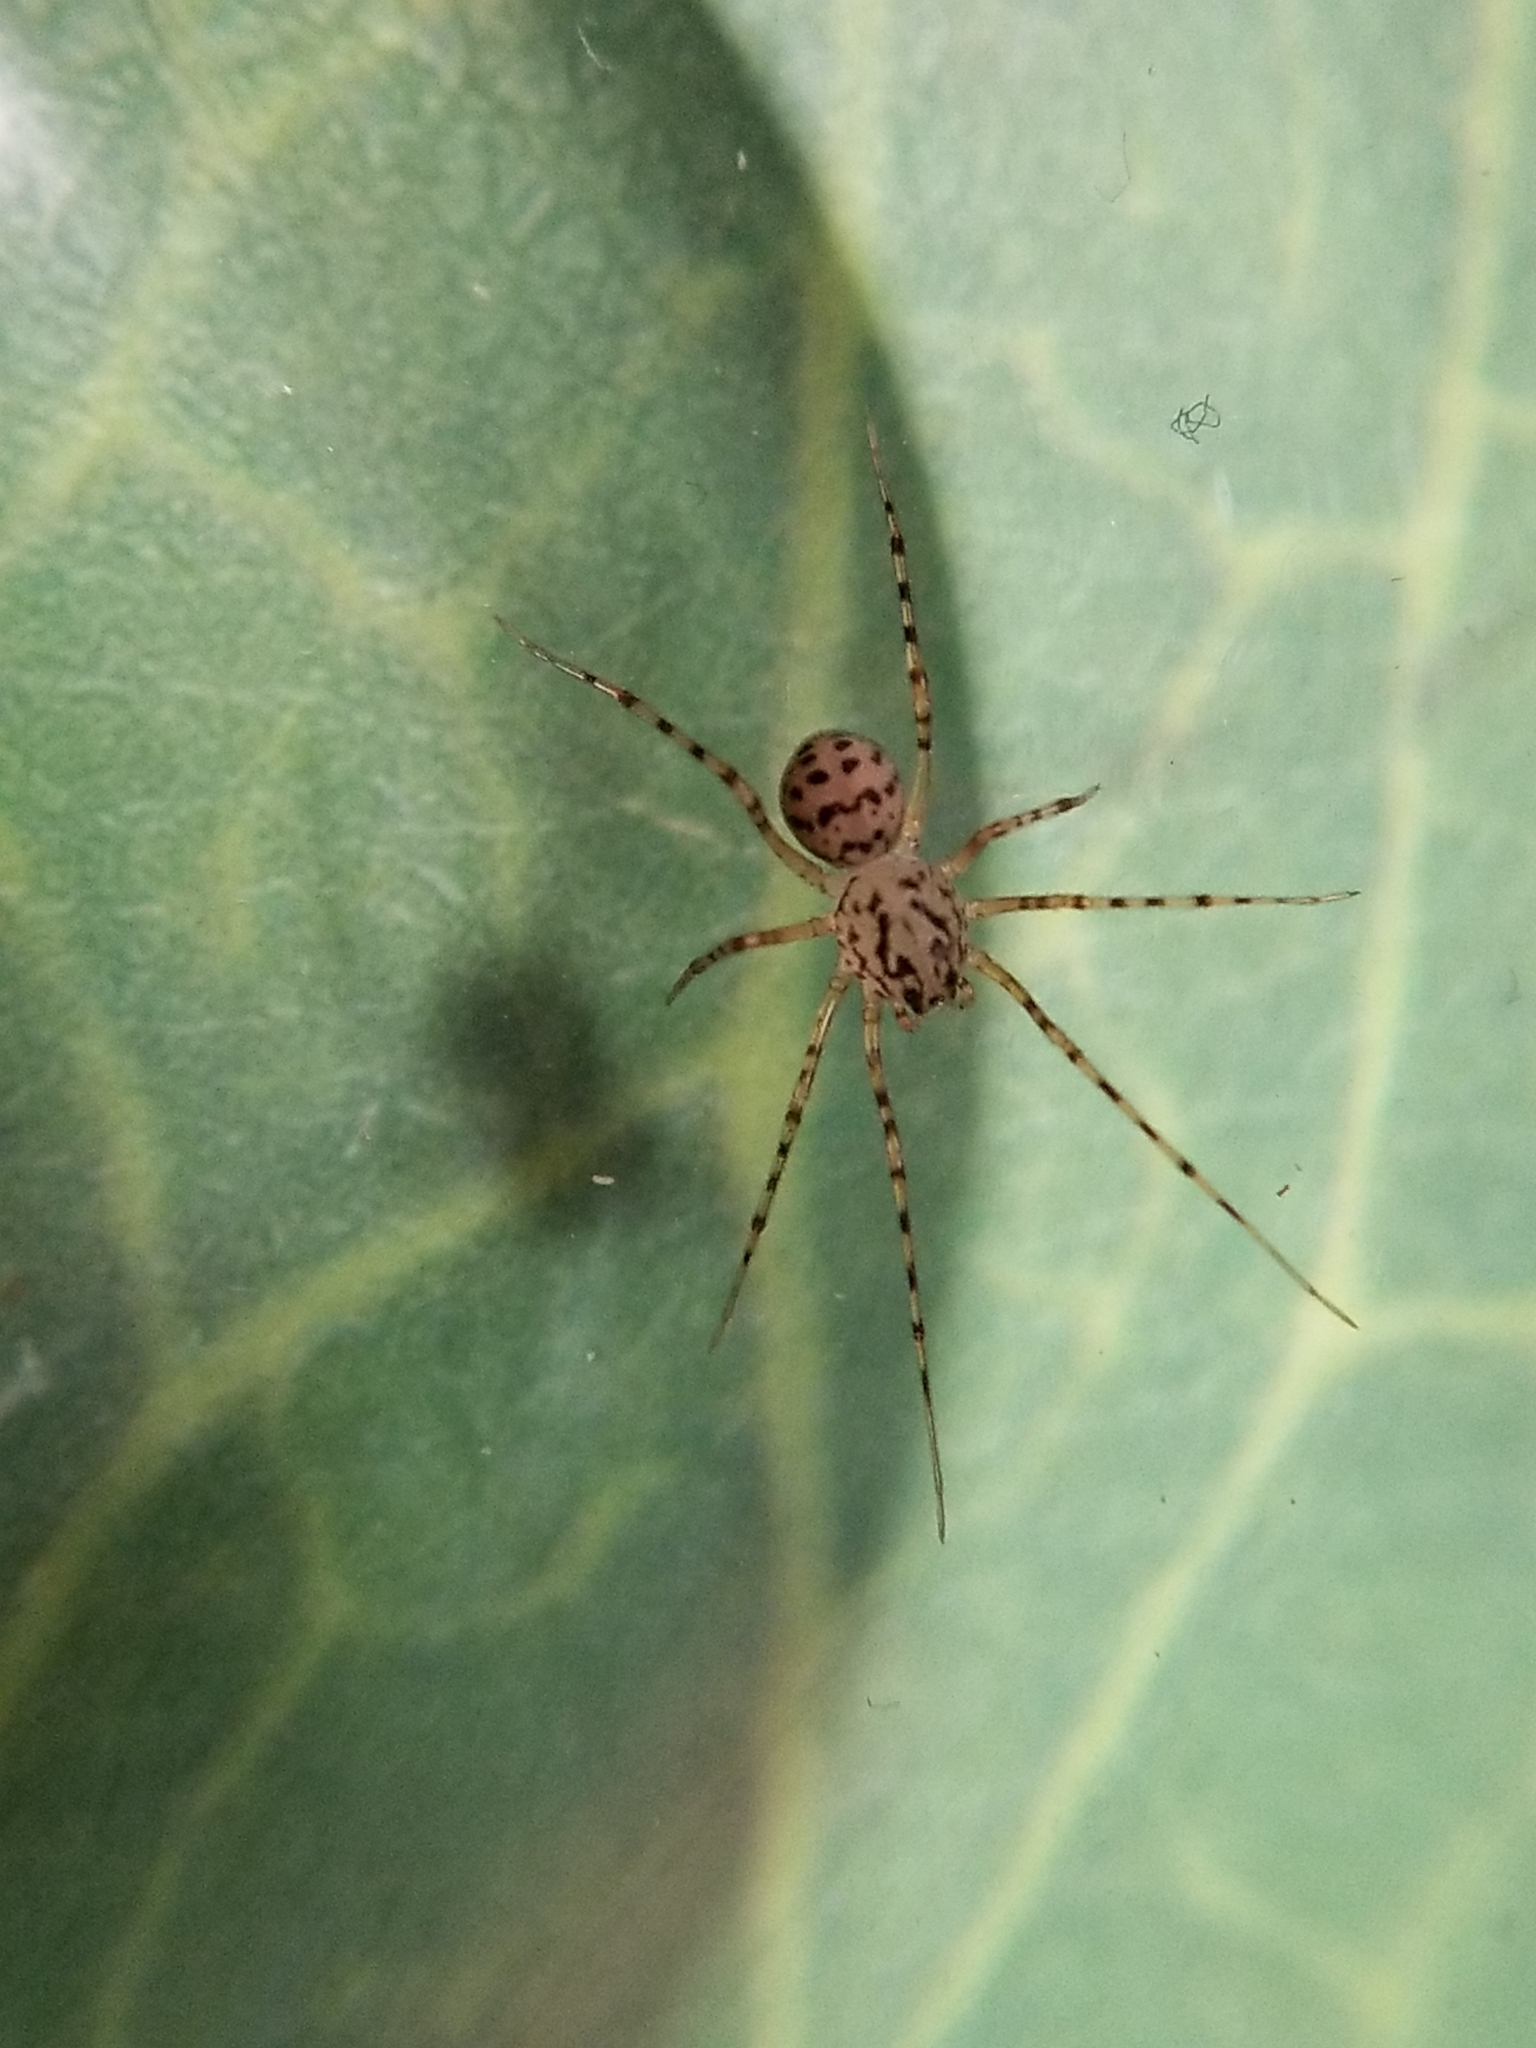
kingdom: Animalia
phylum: Arthropoda
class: Arachnida
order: Araneae
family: Scytodidae
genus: Scytodes
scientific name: Scytodes thoracica
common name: Spitting spider
